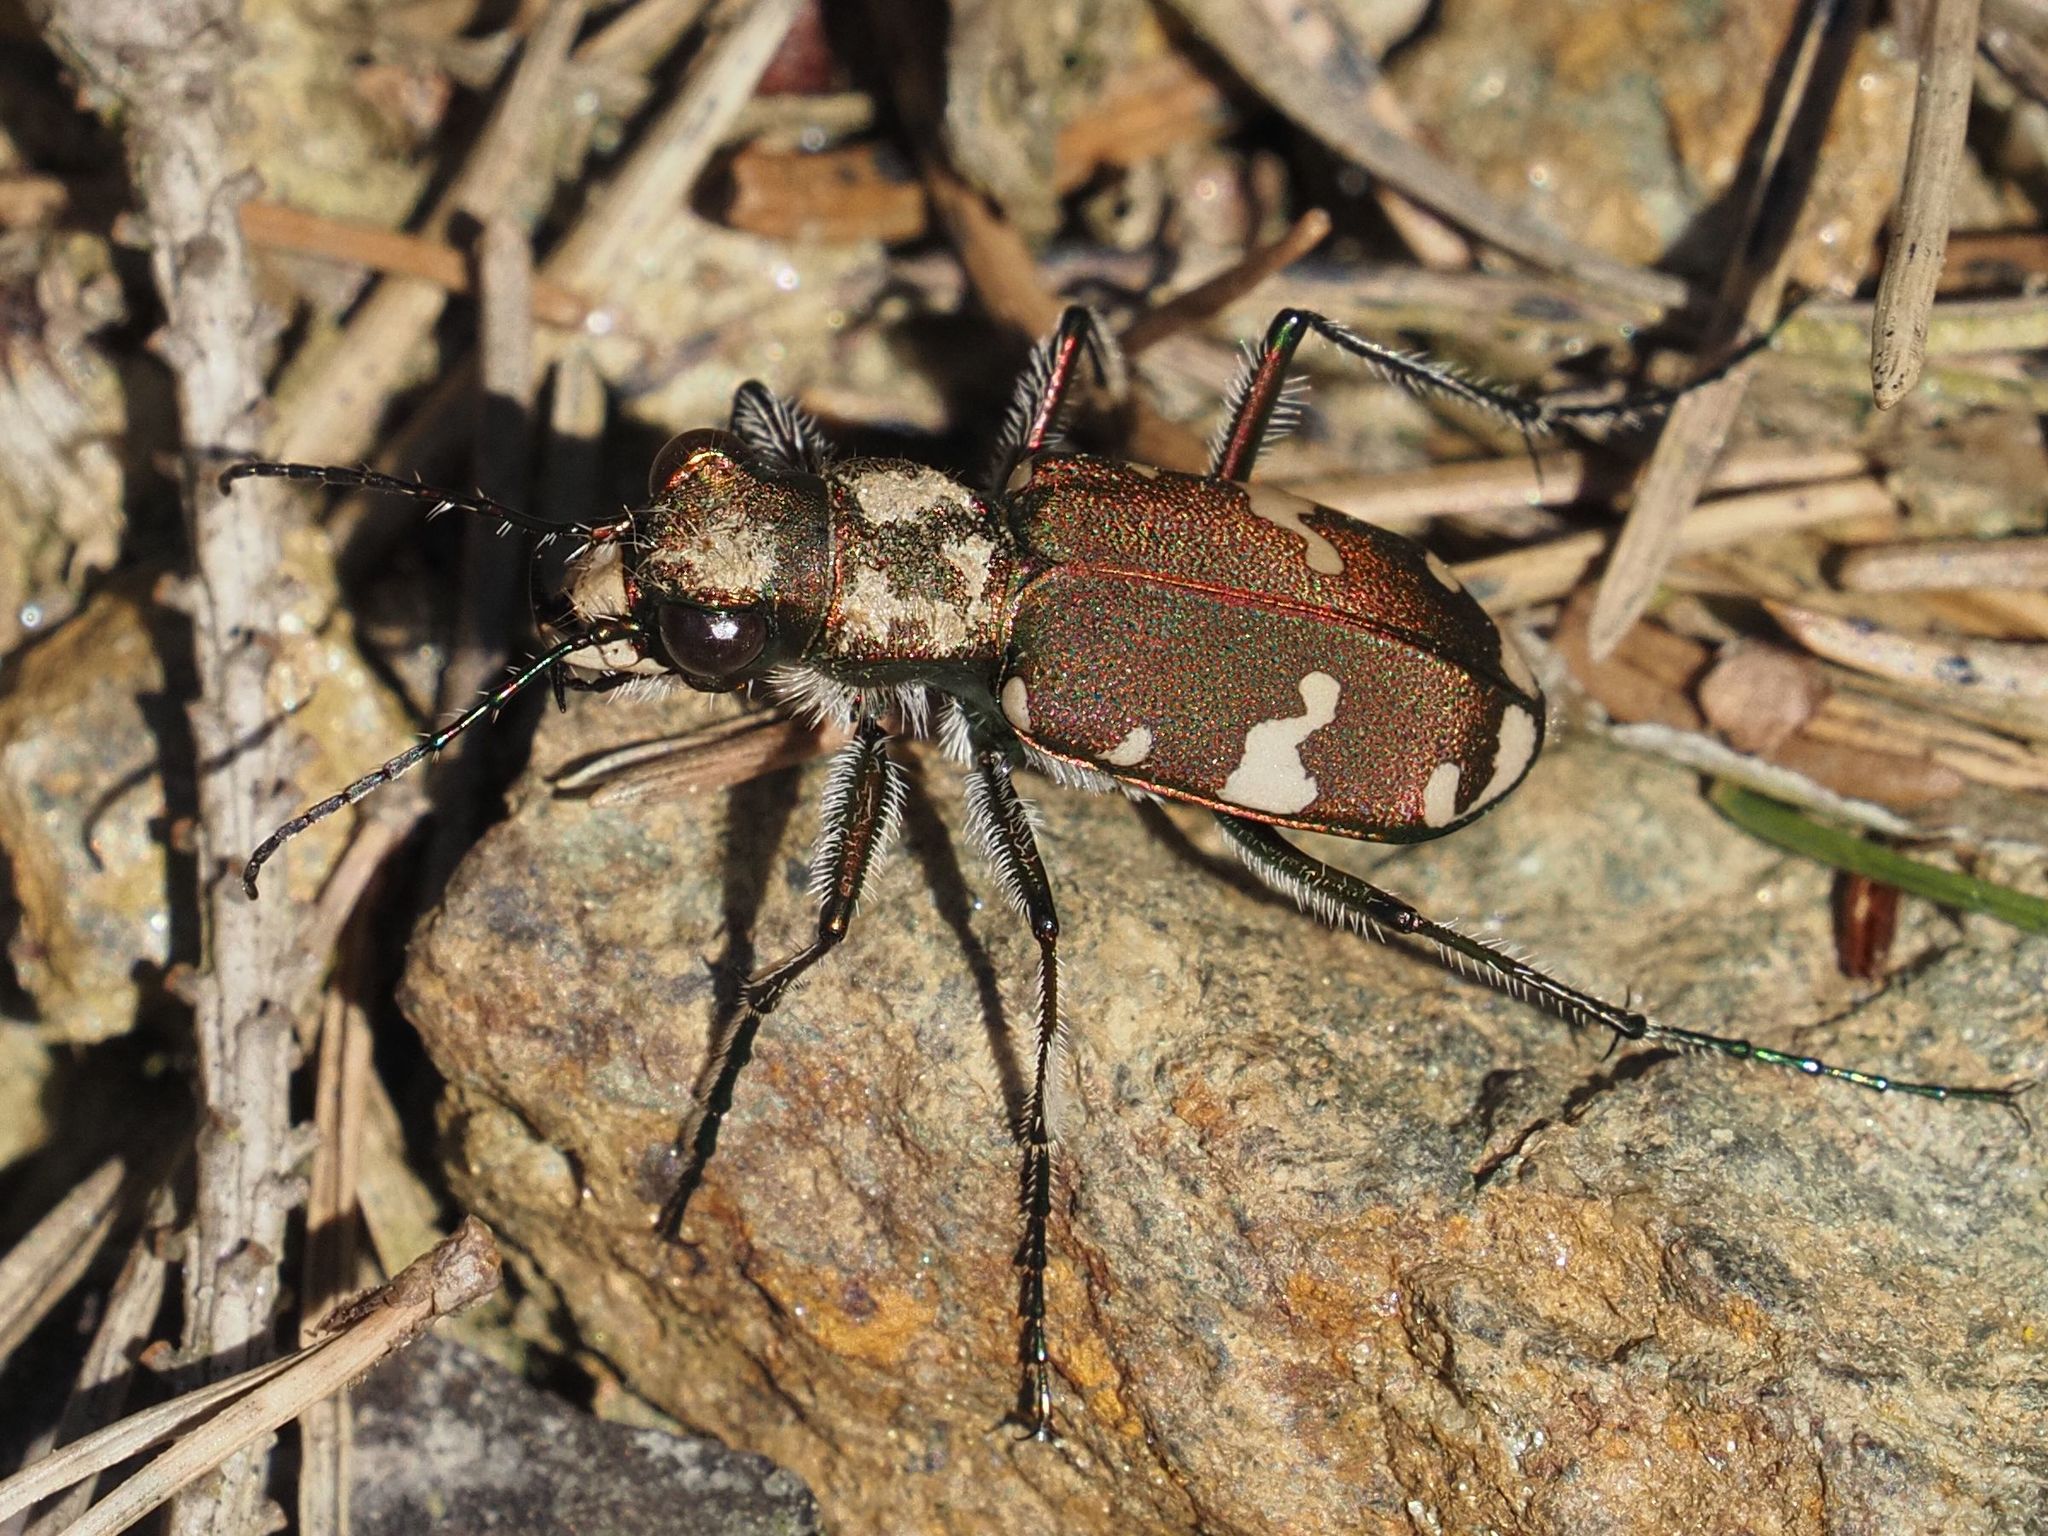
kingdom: Animalia
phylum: Arthropoda
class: Insecta
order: Coleoptera
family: Carabidae
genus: Cicindela
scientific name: Cicindela sylvicola
